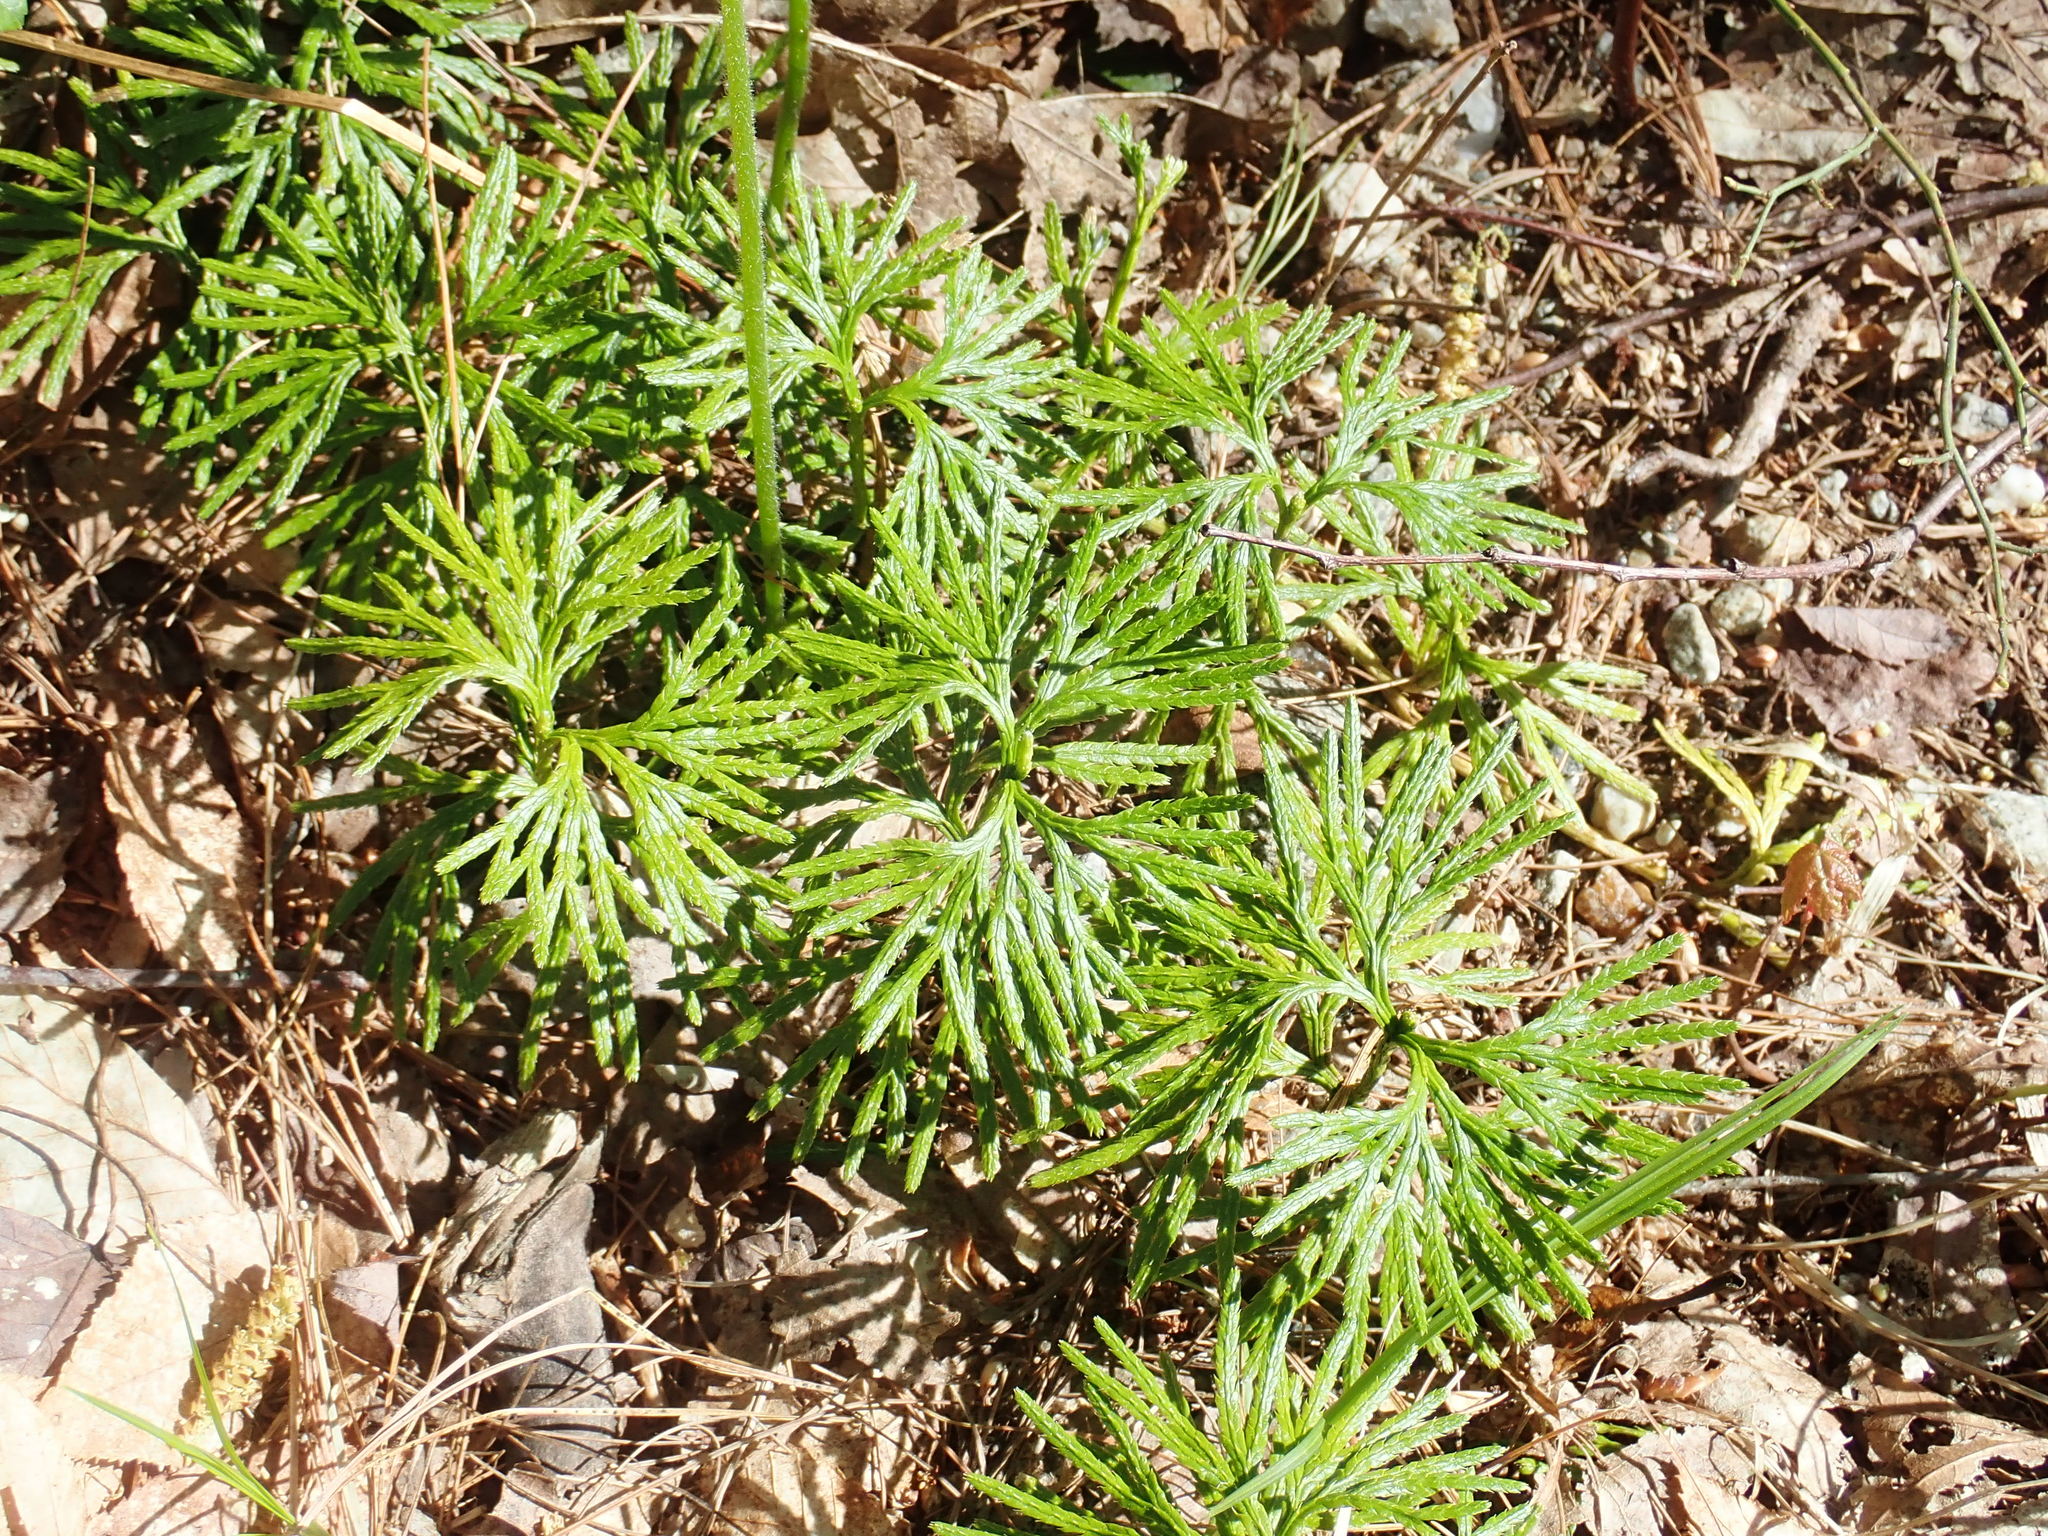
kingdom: Plantae
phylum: Tracheophyta
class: Lycopodiopsida
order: Lycopodiales
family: Lycopodiaceae
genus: Diphasiastrum
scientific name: Diphasiastrum digitatum
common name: Southern running-pine
